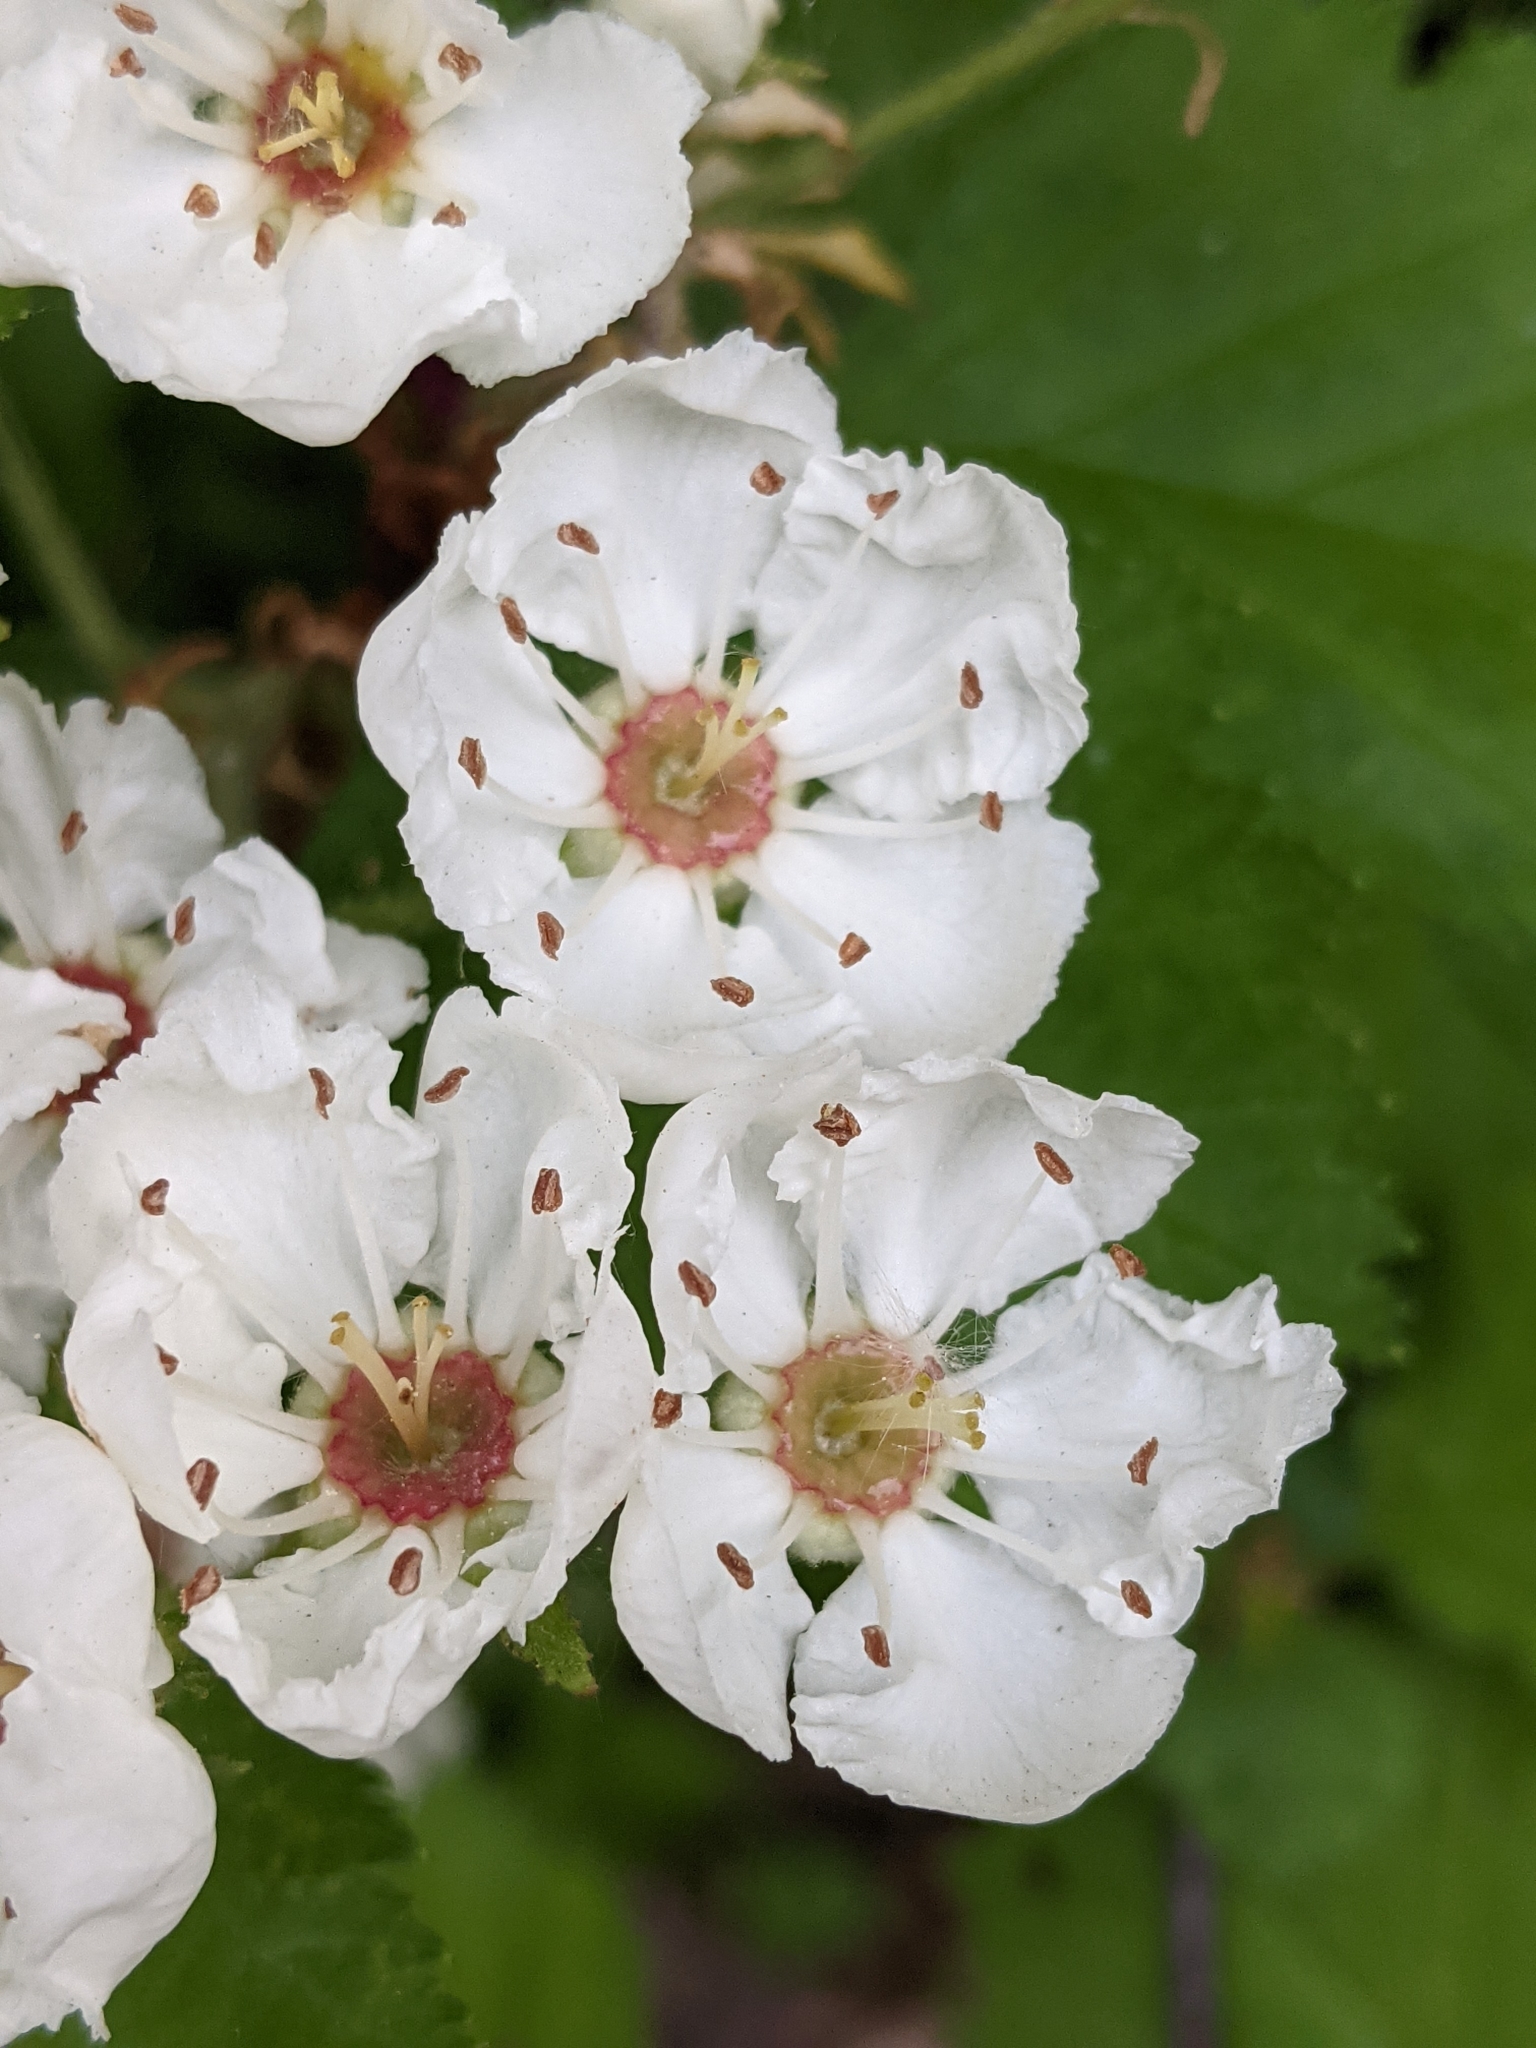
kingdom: Plantae
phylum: Tracheophyta
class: Magnoliopsida
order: Rosales
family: Rosaceae
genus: Crataegus
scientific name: Crataegus submollis
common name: Hairy cockspurthorn
